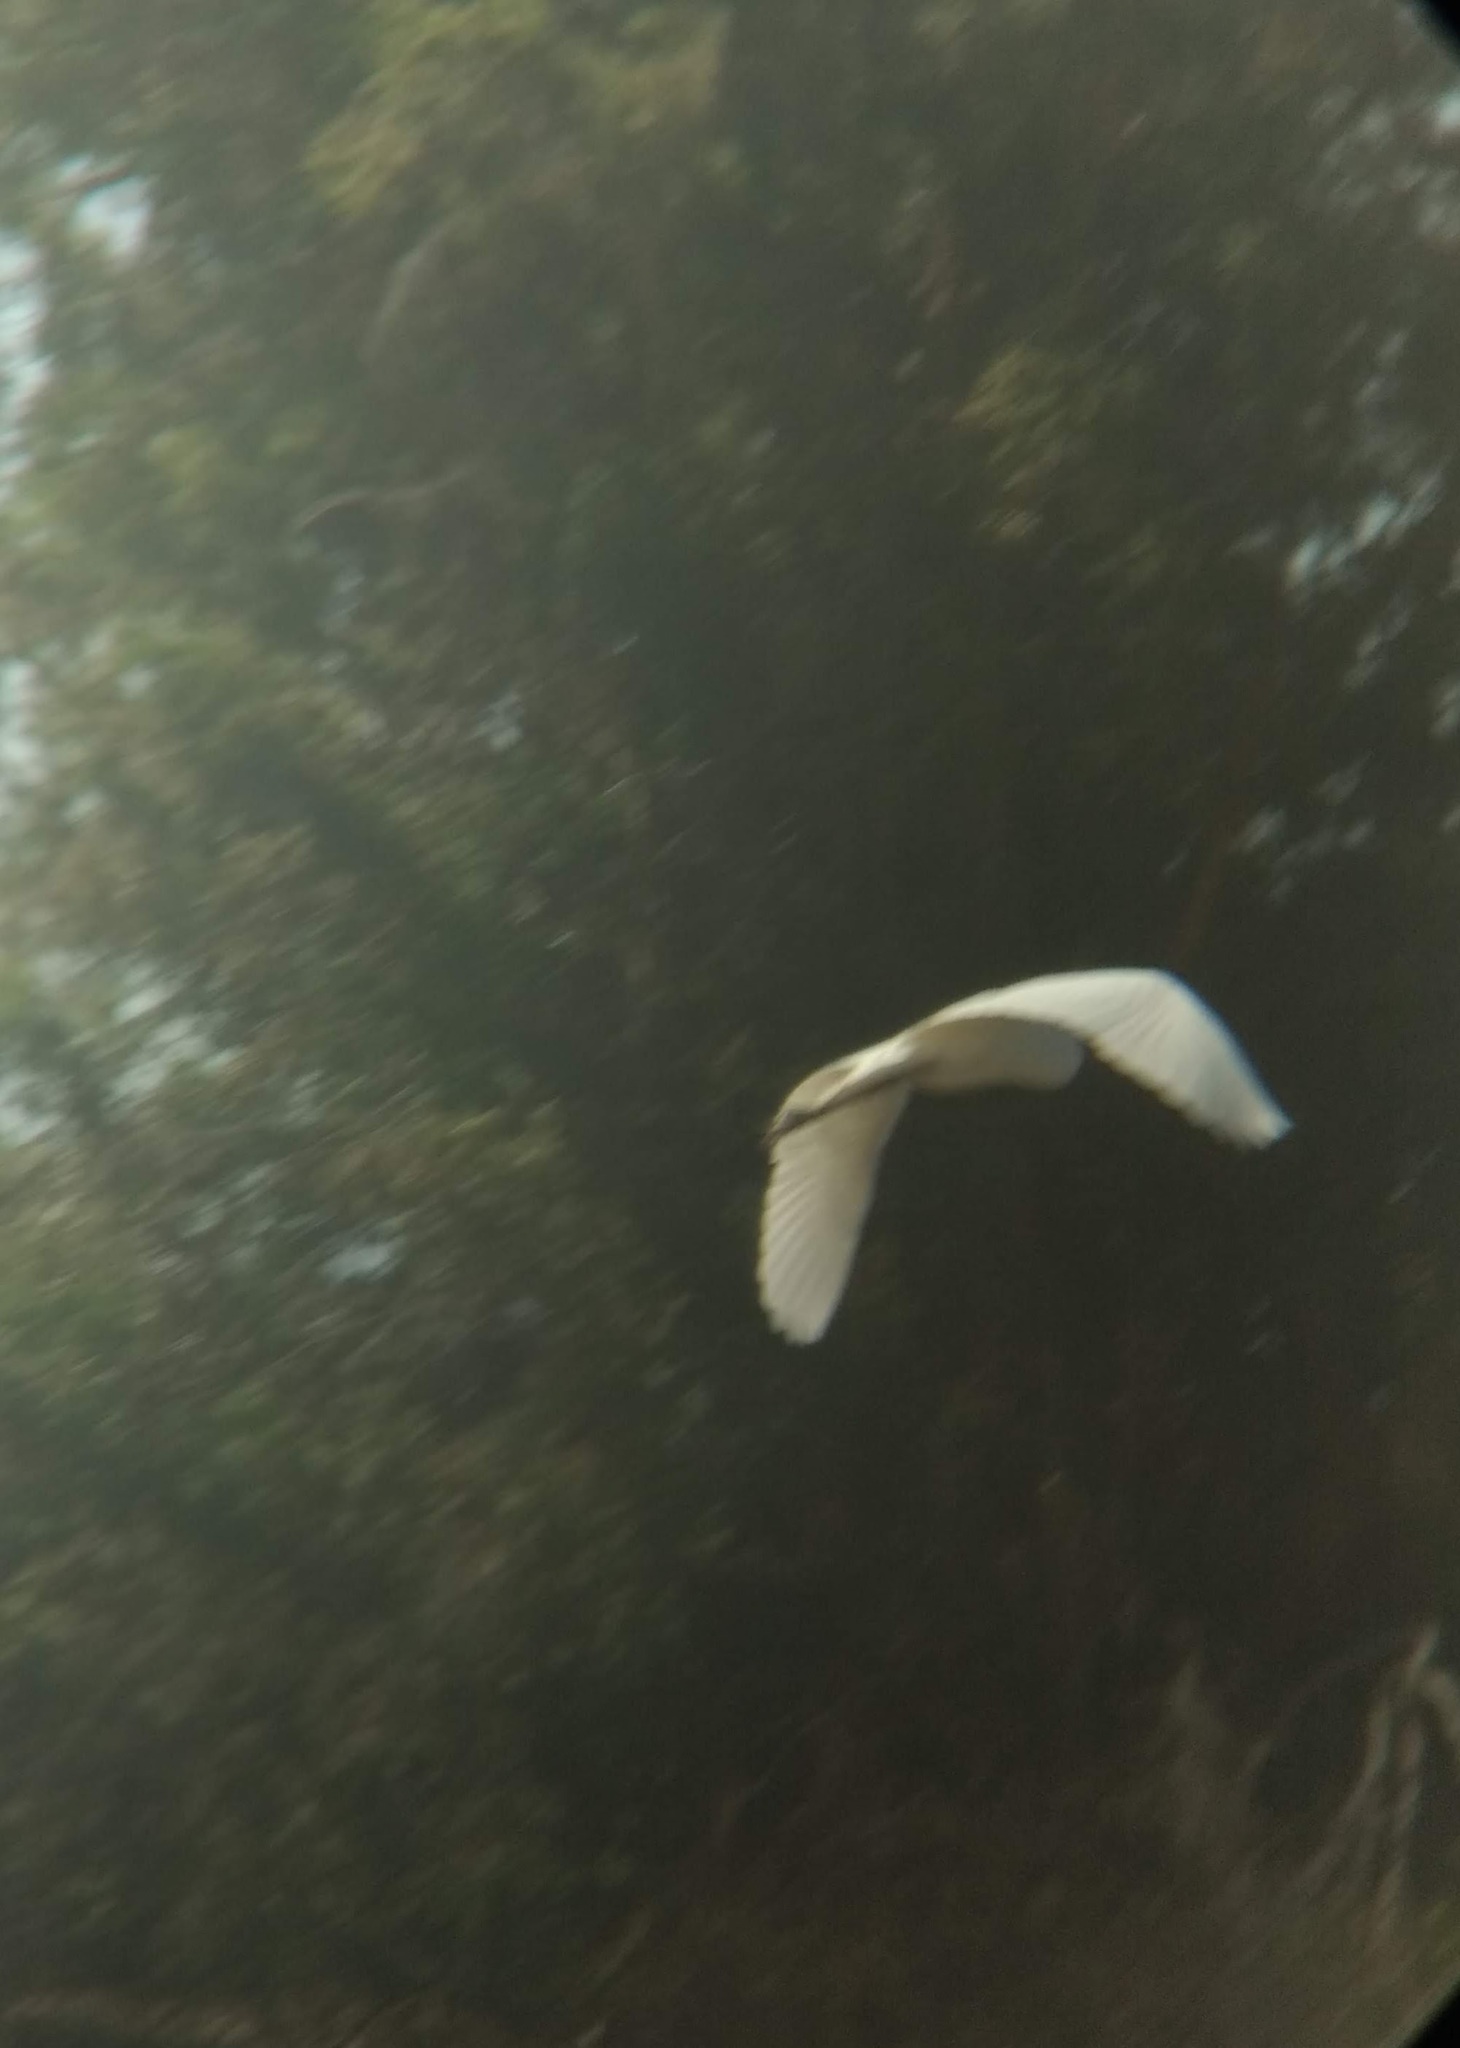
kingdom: Animalia
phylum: Chordata
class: Aves
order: Pelecaniformes
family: Ardeidae
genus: Ardea
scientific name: Ardea alba
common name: Great egret
